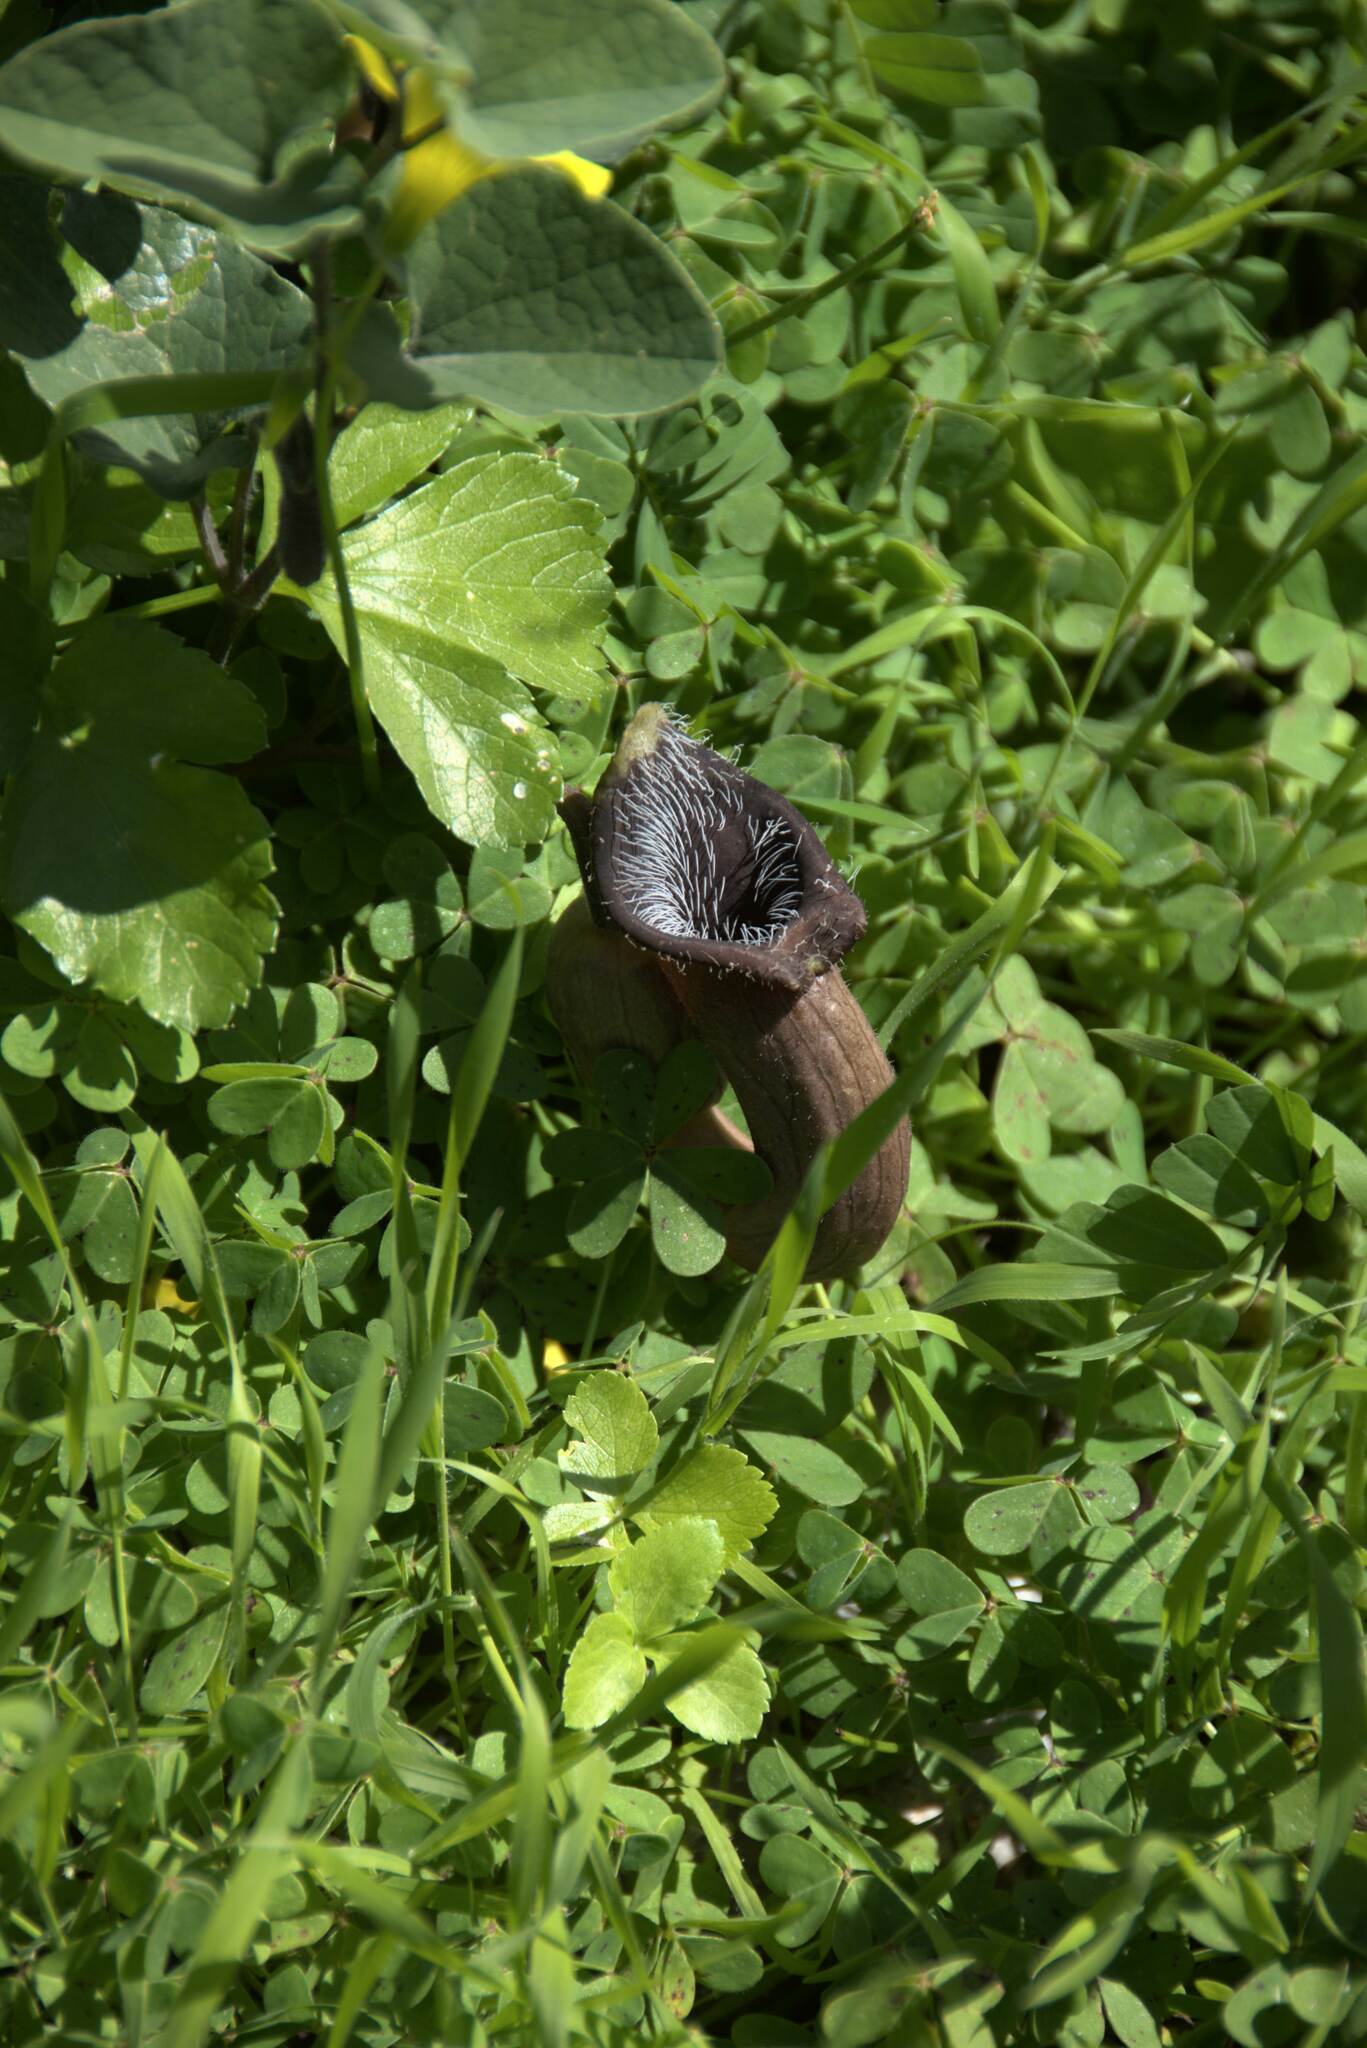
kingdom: Plantae
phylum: Tracheophyta
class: Magnoliopsida
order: Piperales
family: Aristolochiaceae
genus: Aristolochia
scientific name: Aristolochia cretica
